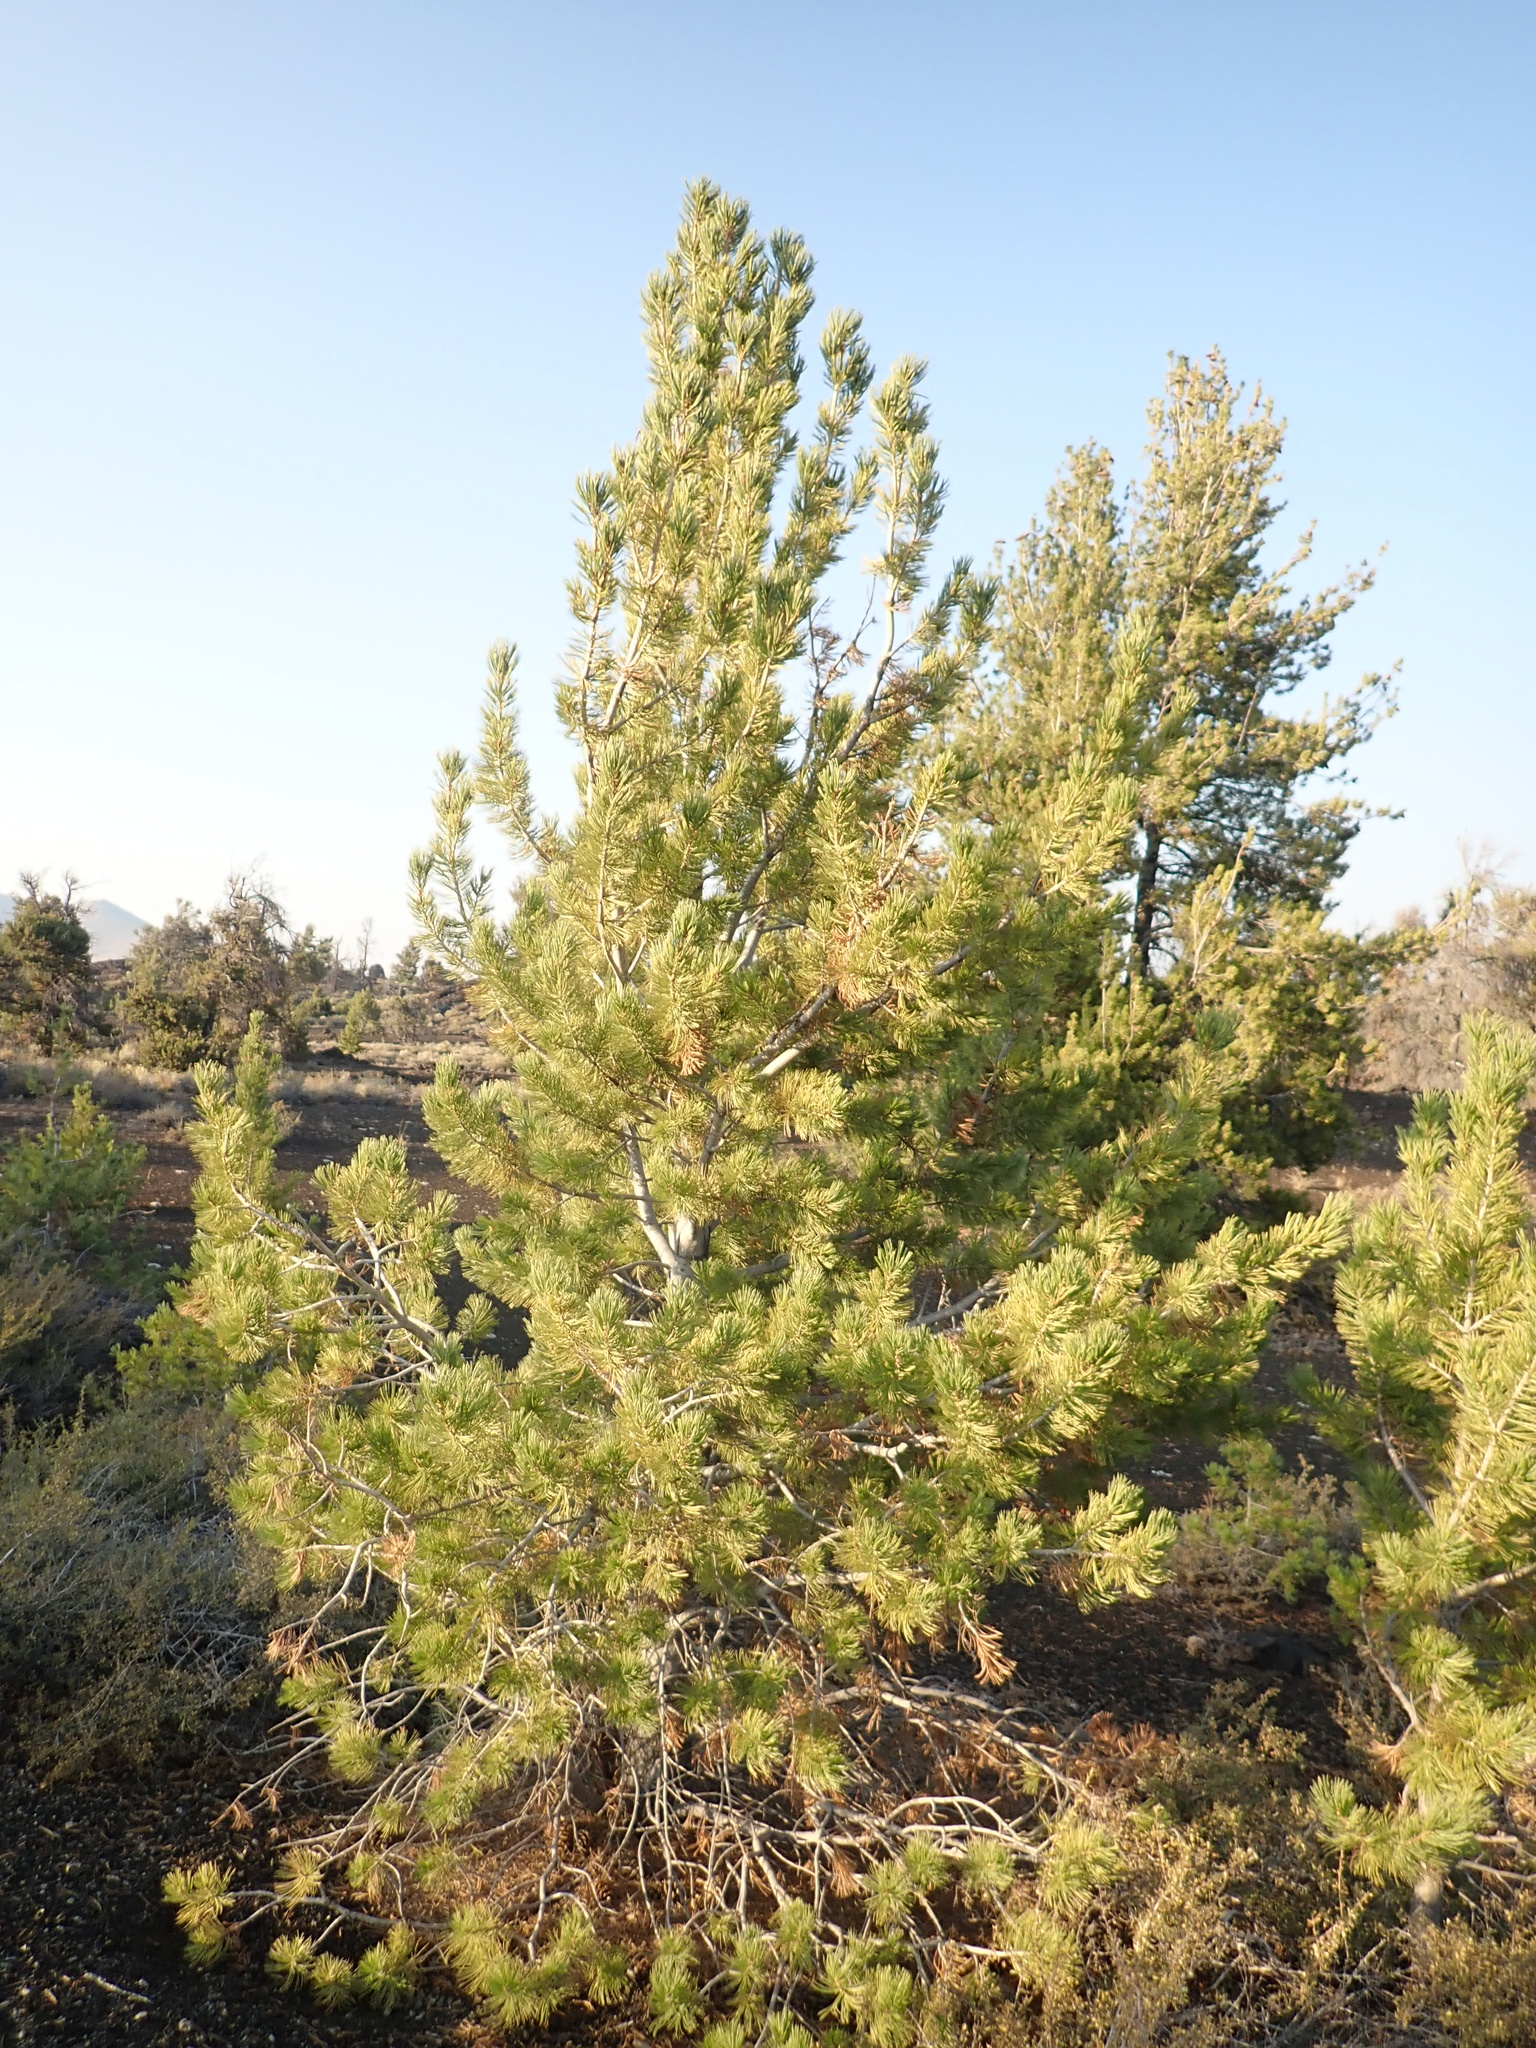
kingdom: Plantae
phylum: Tracheophyta
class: Pinopsida
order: Pinales
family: Pinaceae
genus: Pinus
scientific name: Pinus flexilis
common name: Limber pine
